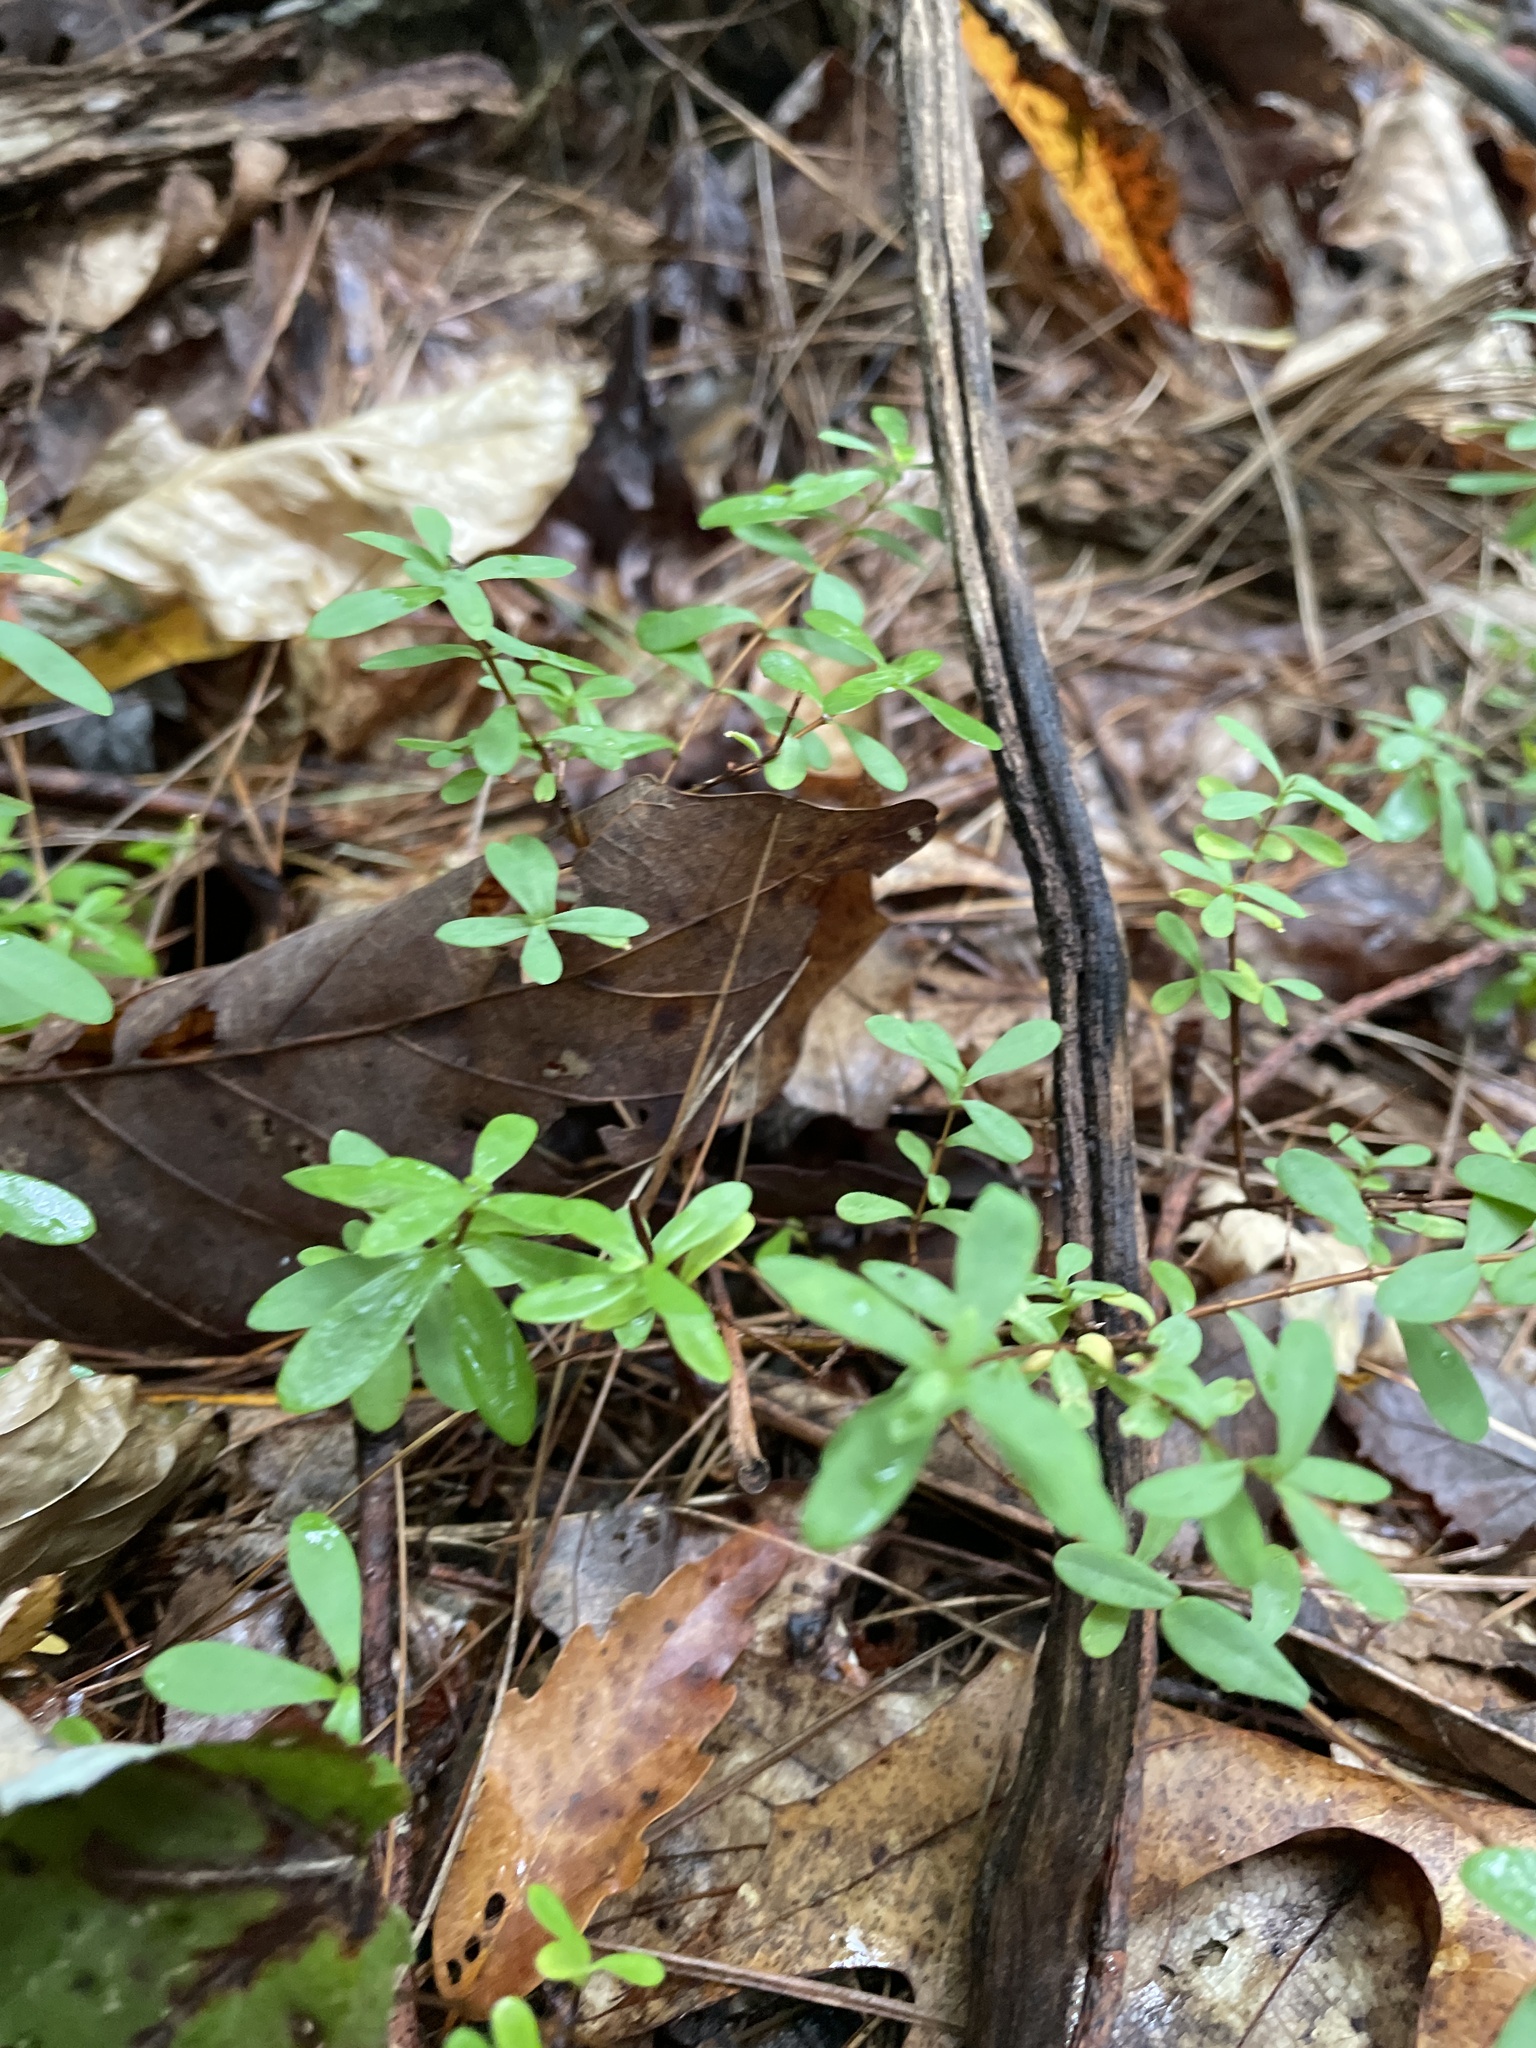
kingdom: Plantae
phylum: Tracheophyta
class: Magnoliopsida
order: Malpighiales
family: Hypericaceae
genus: Hypericum
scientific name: Hypericum hypericoides
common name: St. andrew's cross
